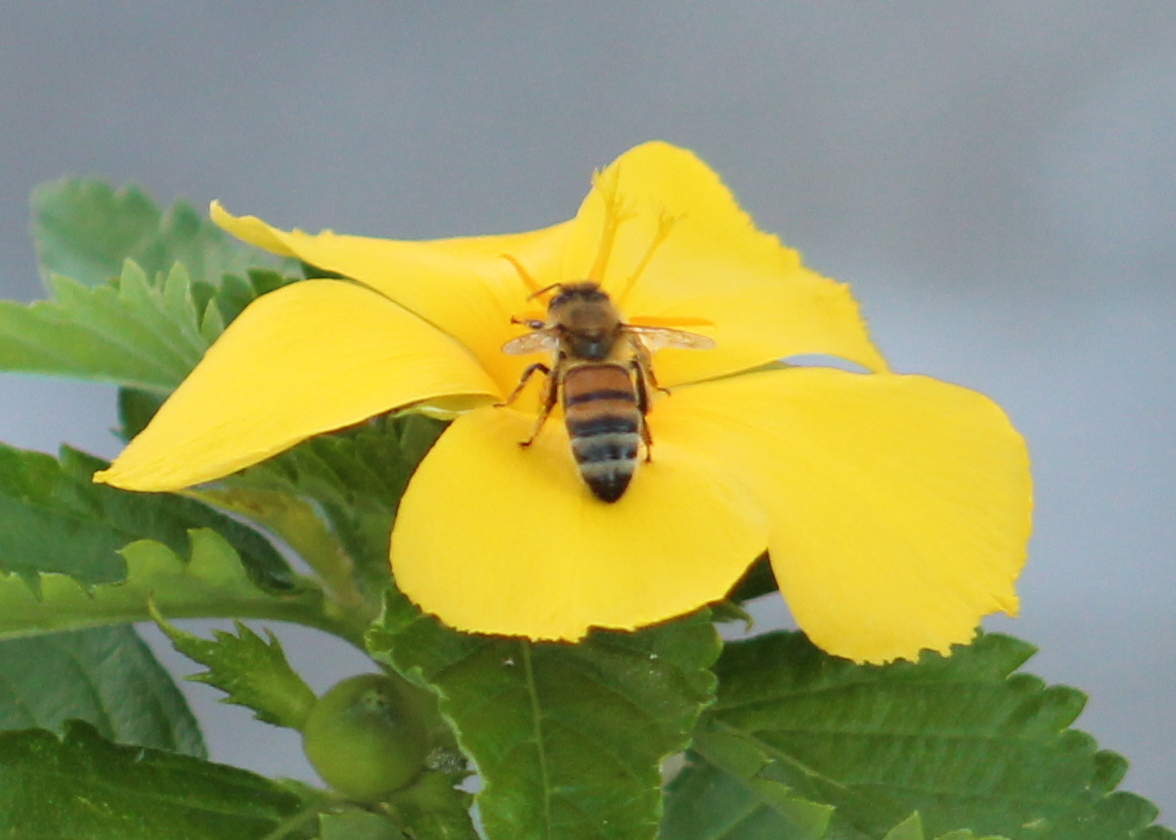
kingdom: Animalia
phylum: Arthropoda
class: Insecta
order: Hymenoptera
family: Apidae
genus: Apis
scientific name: Apis mellifera
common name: Honey bee
